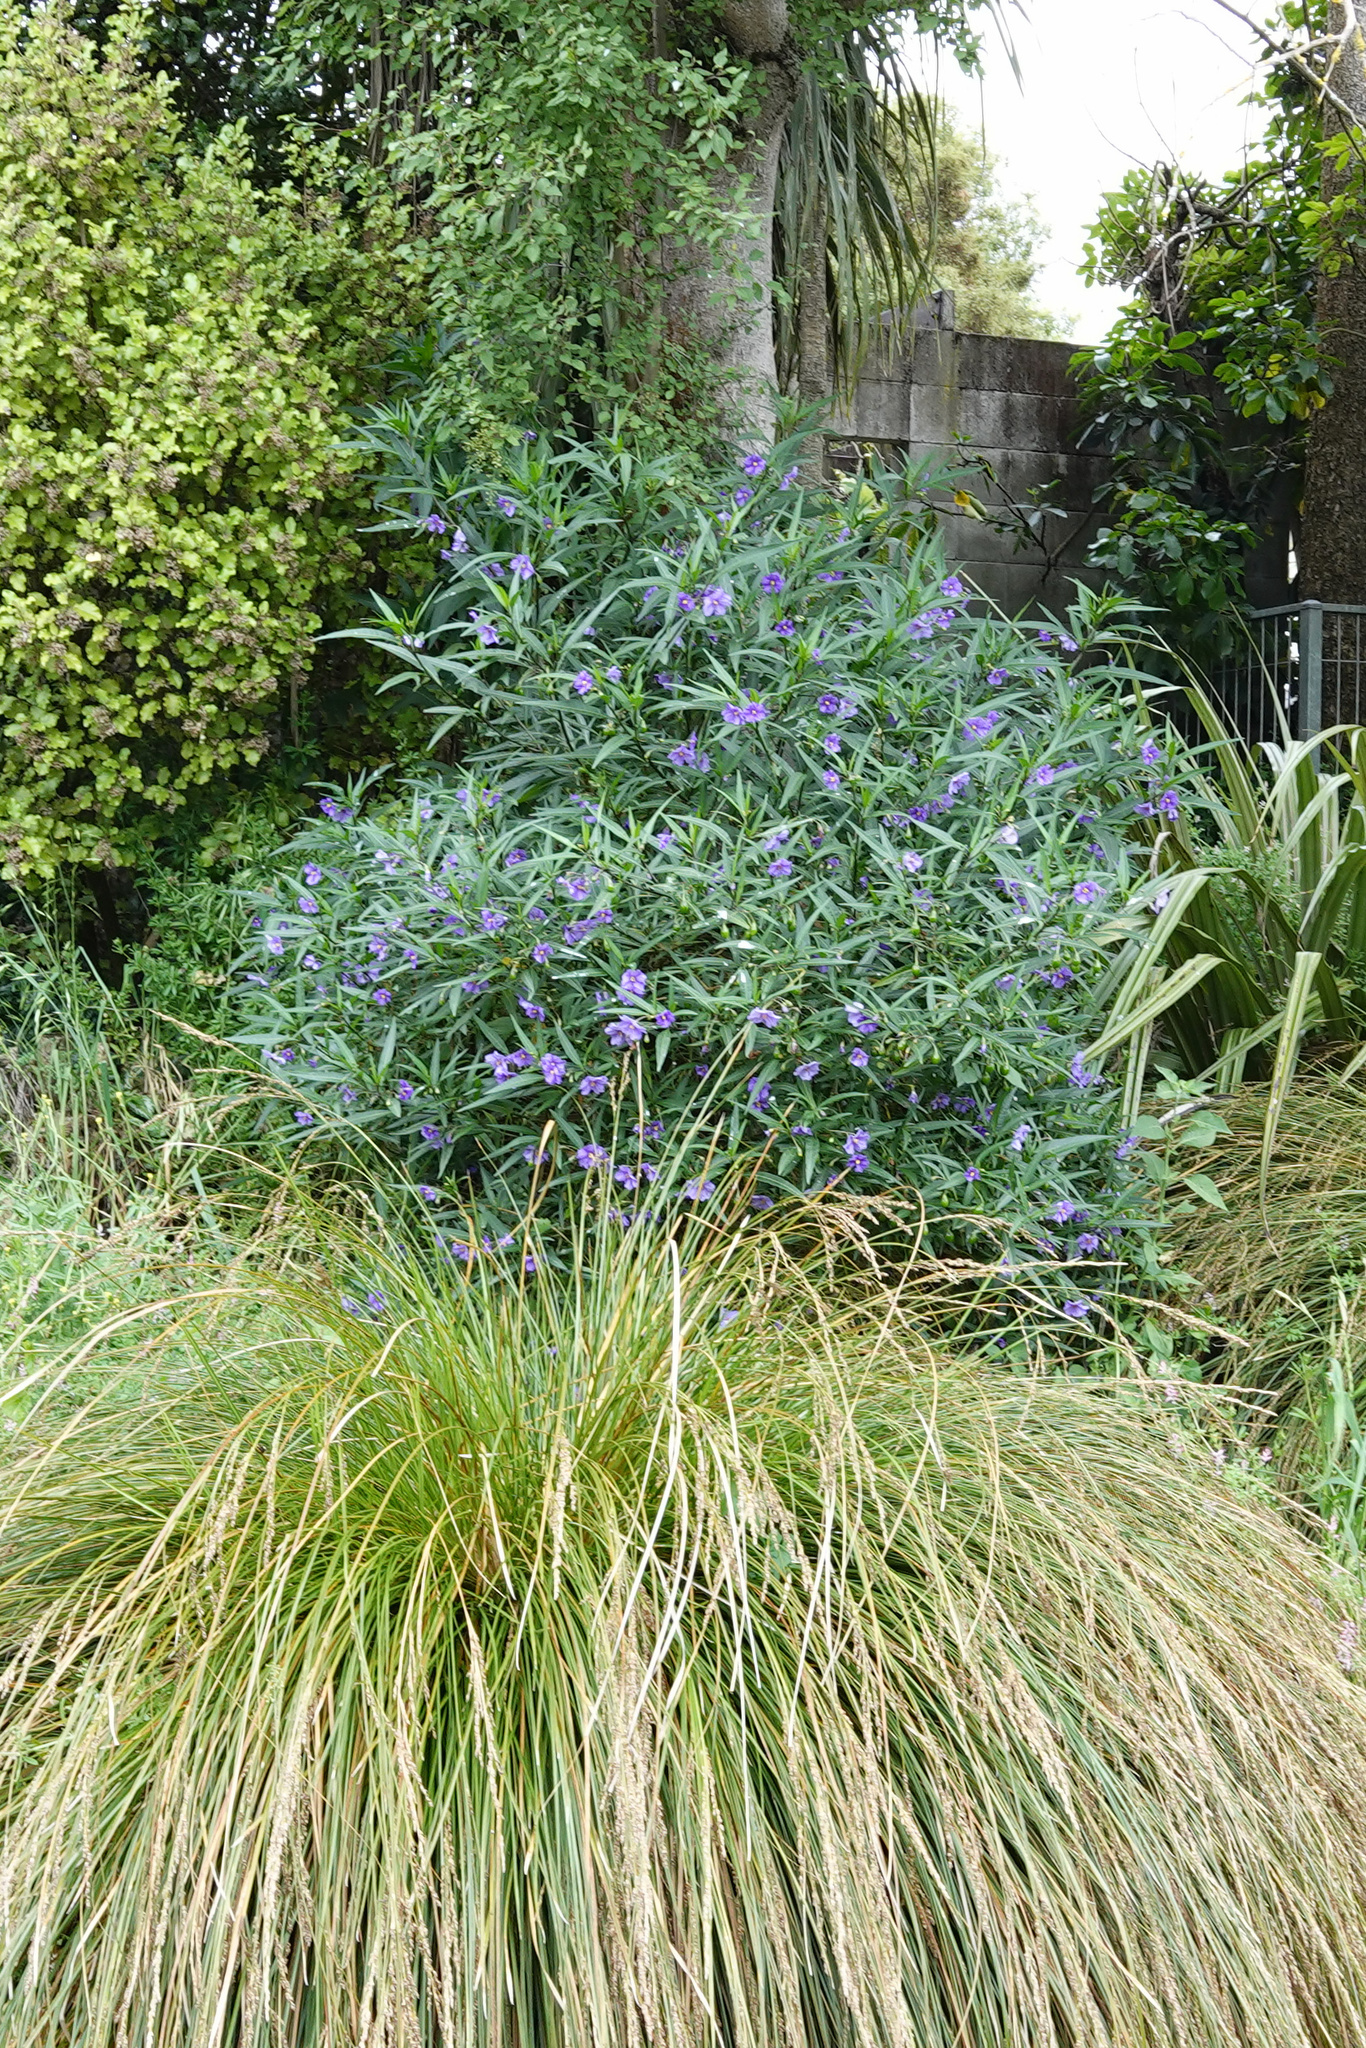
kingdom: Plantae
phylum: Tracheophyta
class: Magnoliopsida
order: Solanales
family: Solanaceae
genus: Solanum
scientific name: Solanum laciniatum
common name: Kangaroo-apple
